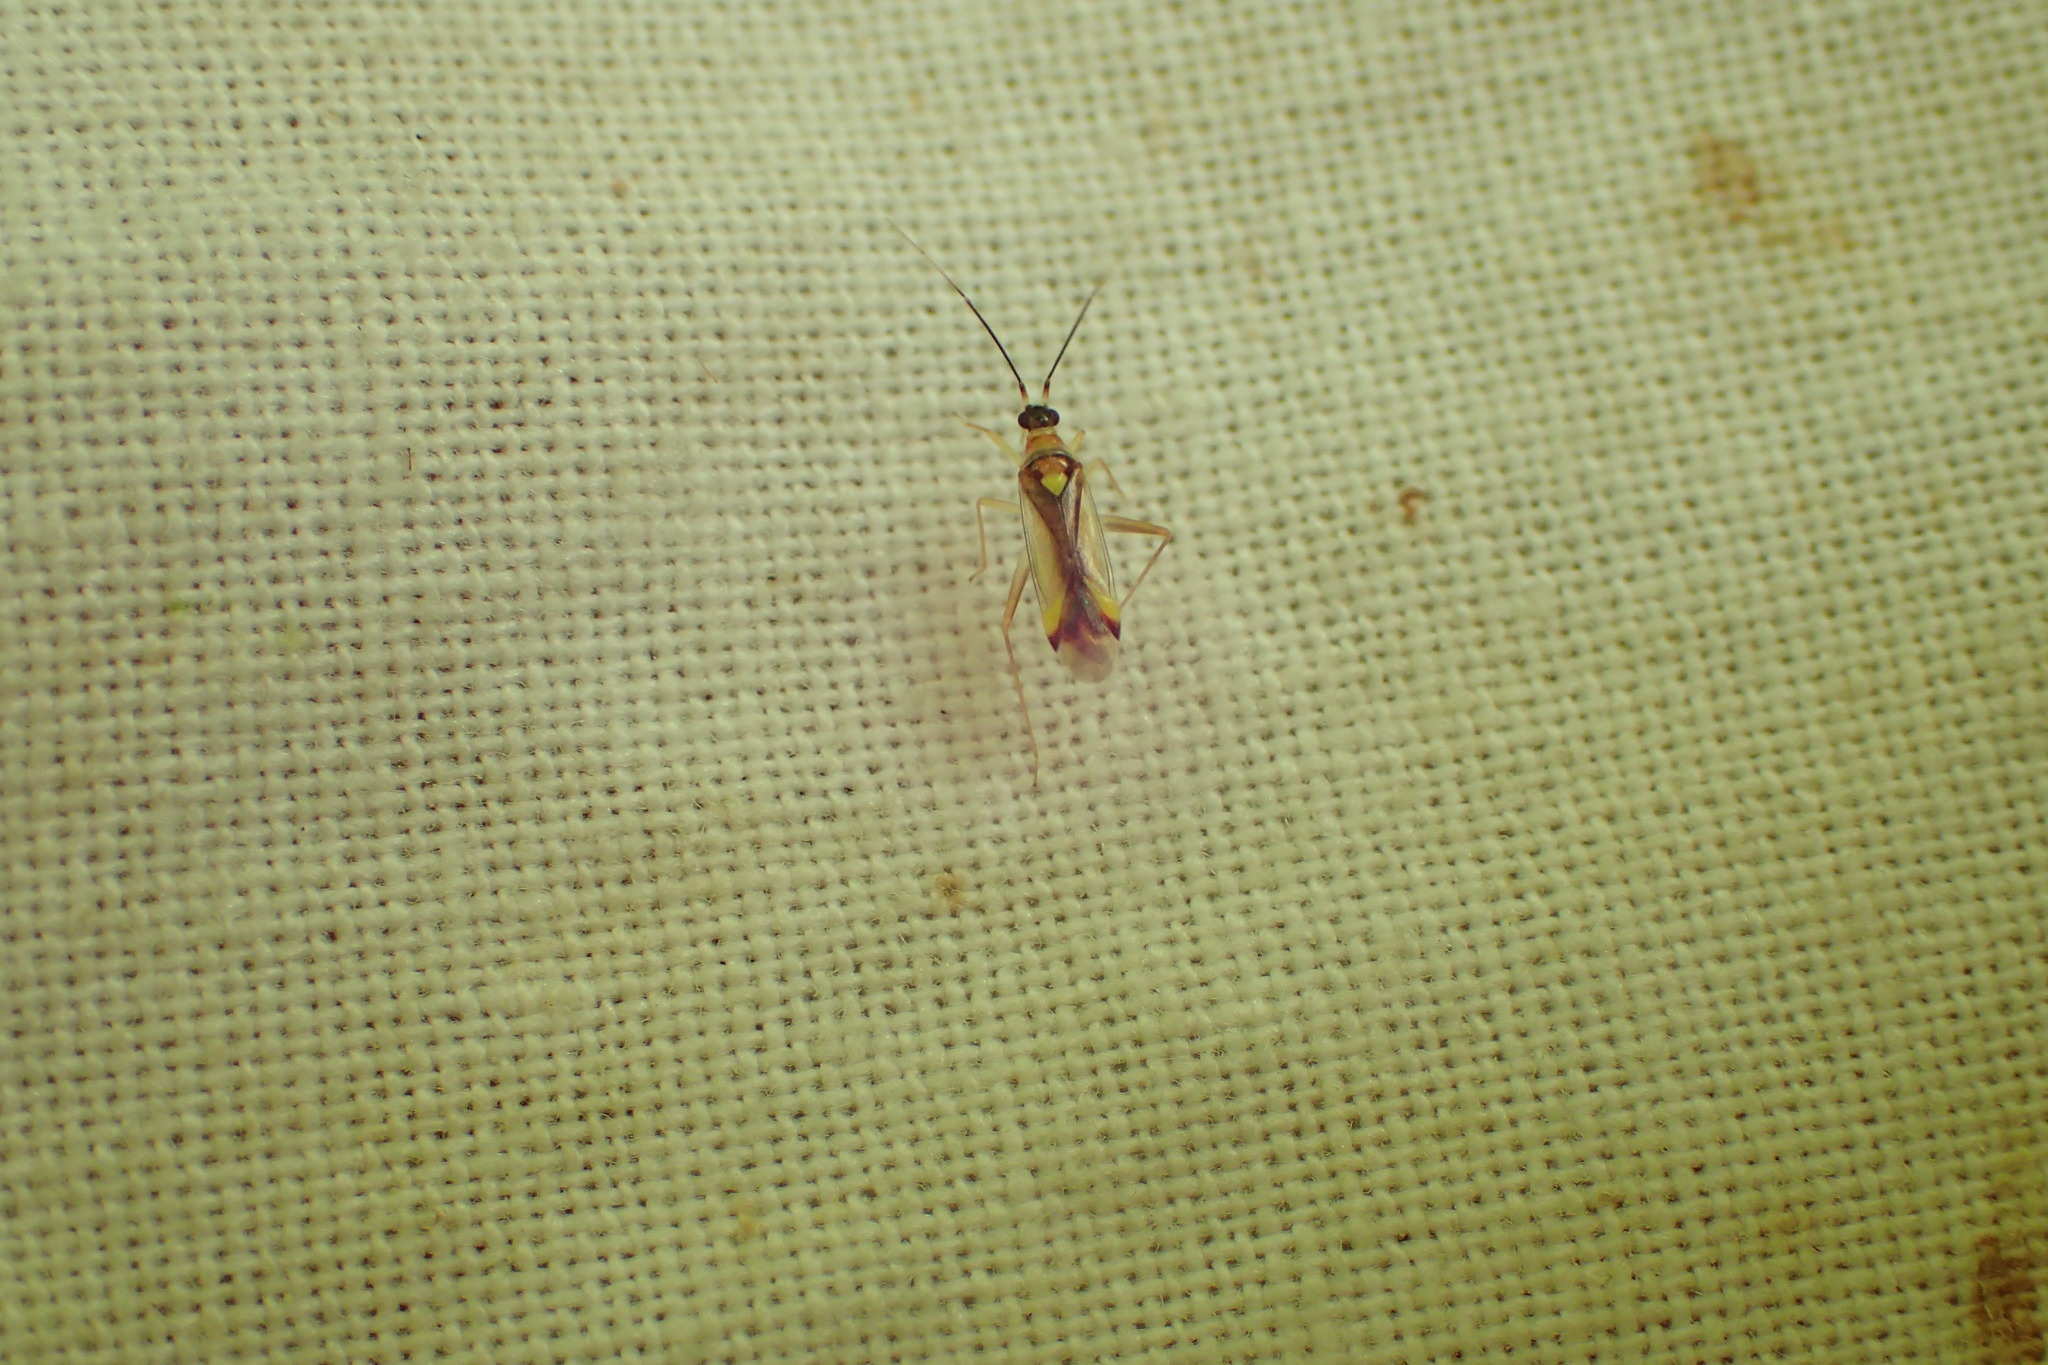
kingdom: Animalia
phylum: Arthropoda
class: Insecta
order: Hemiptera
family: Miridae
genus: Campyloneura
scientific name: Campyloneura virgula
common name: Predatory bug
